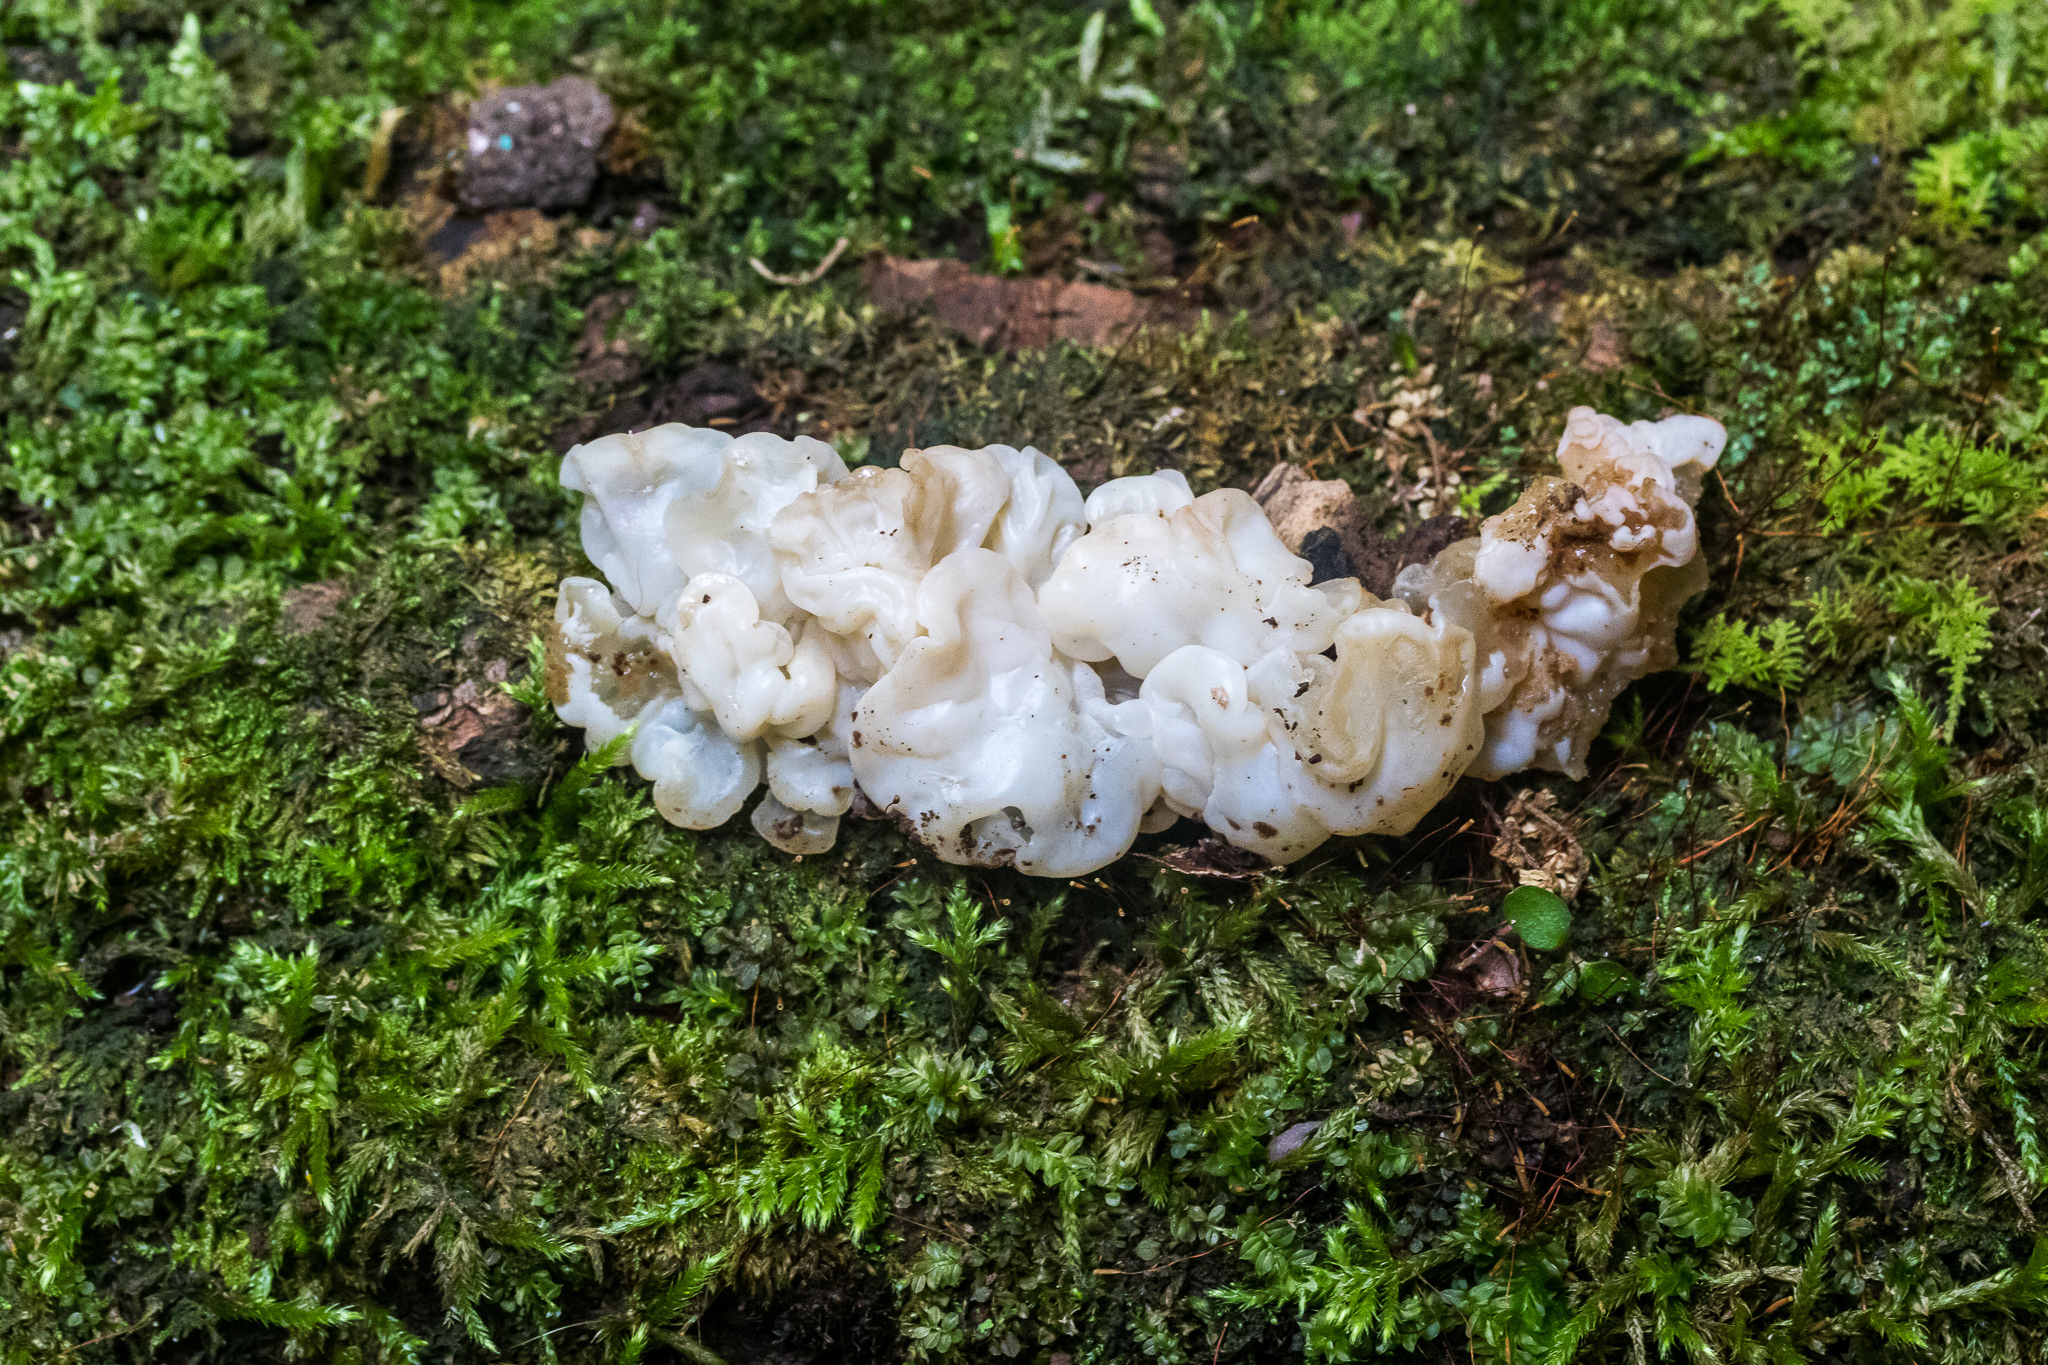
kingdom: Fungi
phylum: Basidiomycota
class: Agaricomycetes
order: Auriculariales
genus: Ductifera
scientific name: Ductifera pululahuana
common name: White jelly fungus
